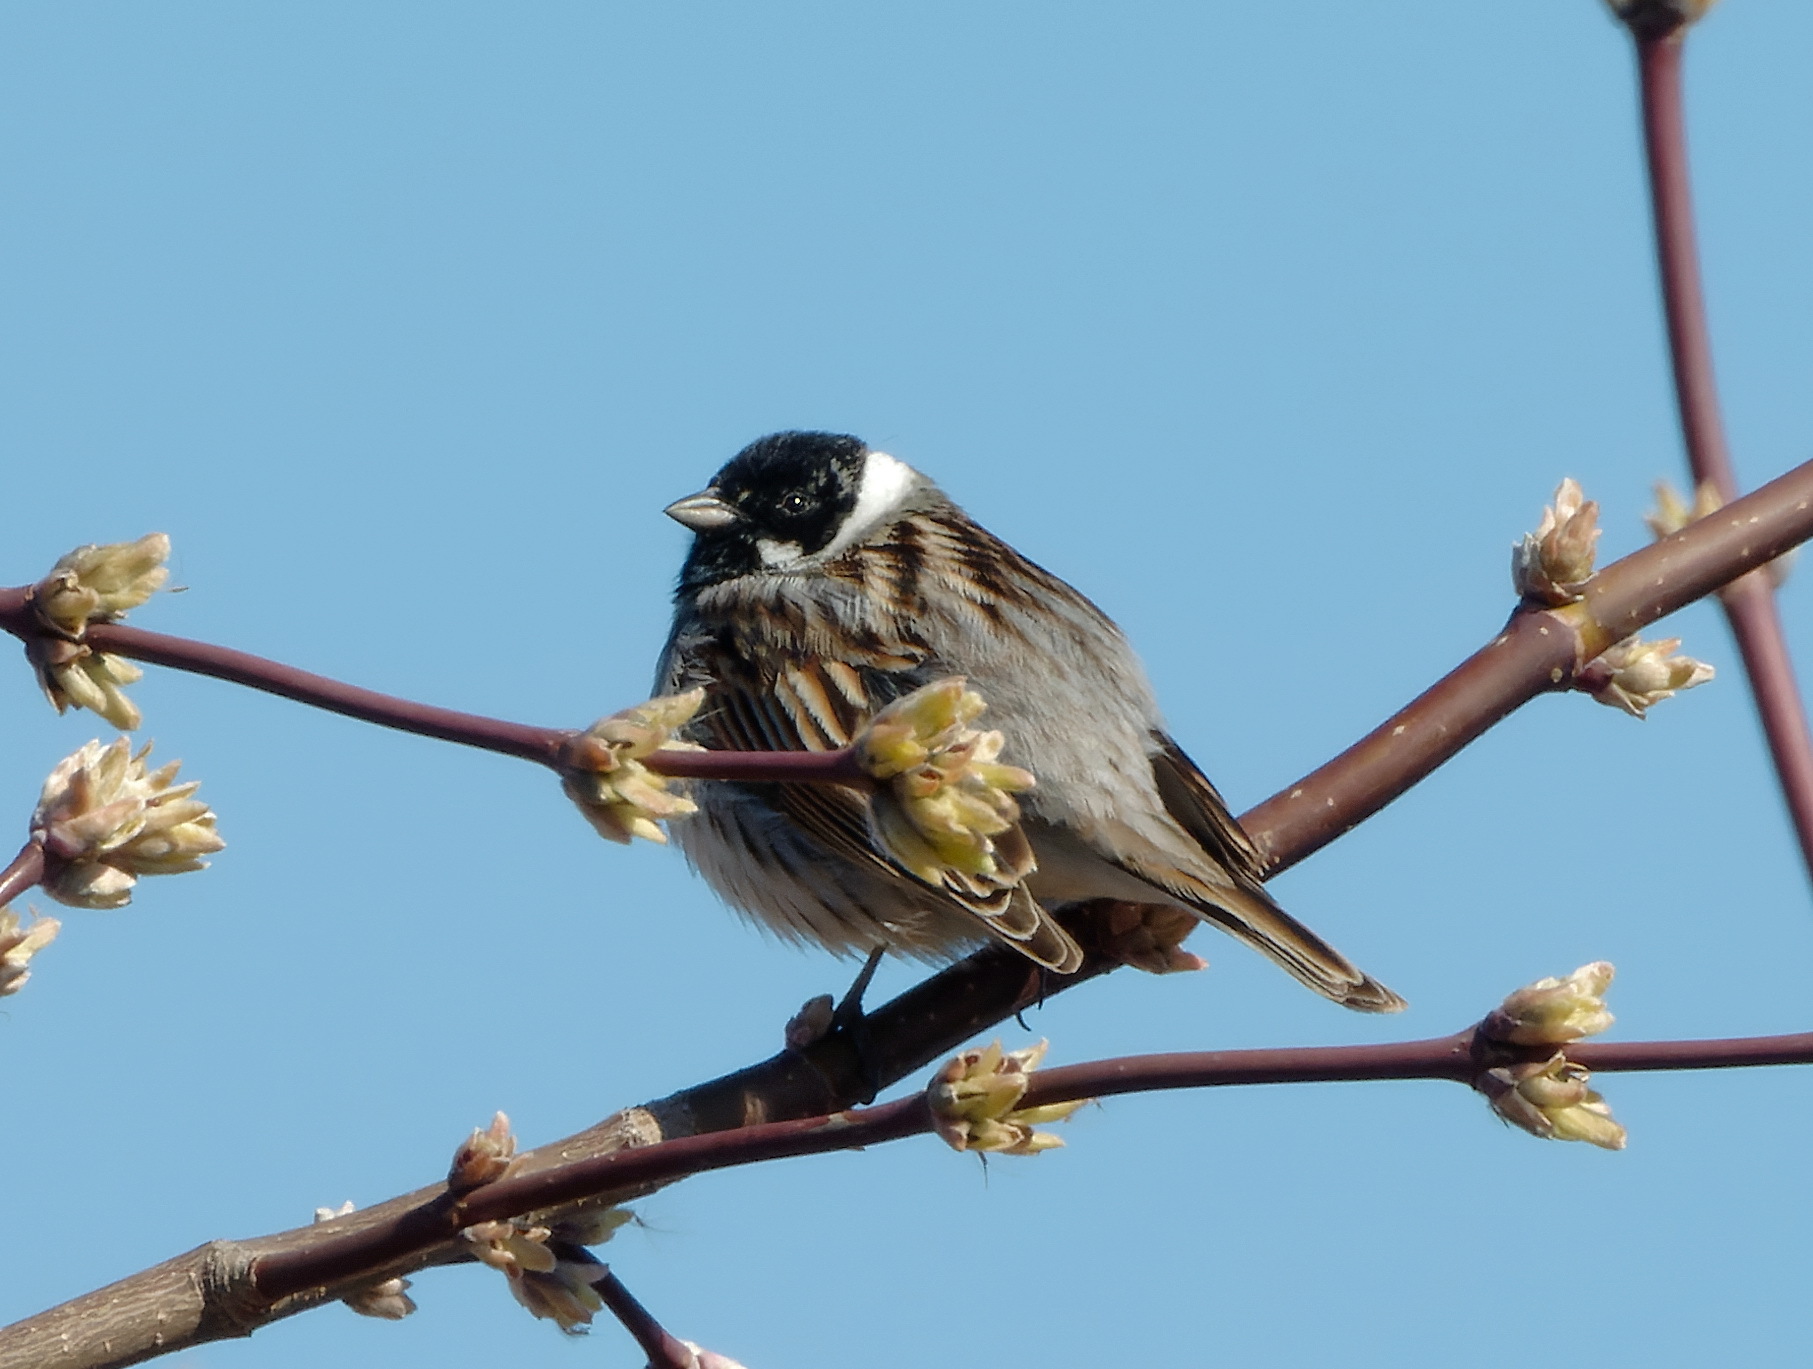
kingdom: Animalia
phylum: Chordata
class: Aves
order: Passeriformes
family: Emberizidae
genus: Emberiza
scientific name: Emberiza schoeniclus
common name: Reed bunting
